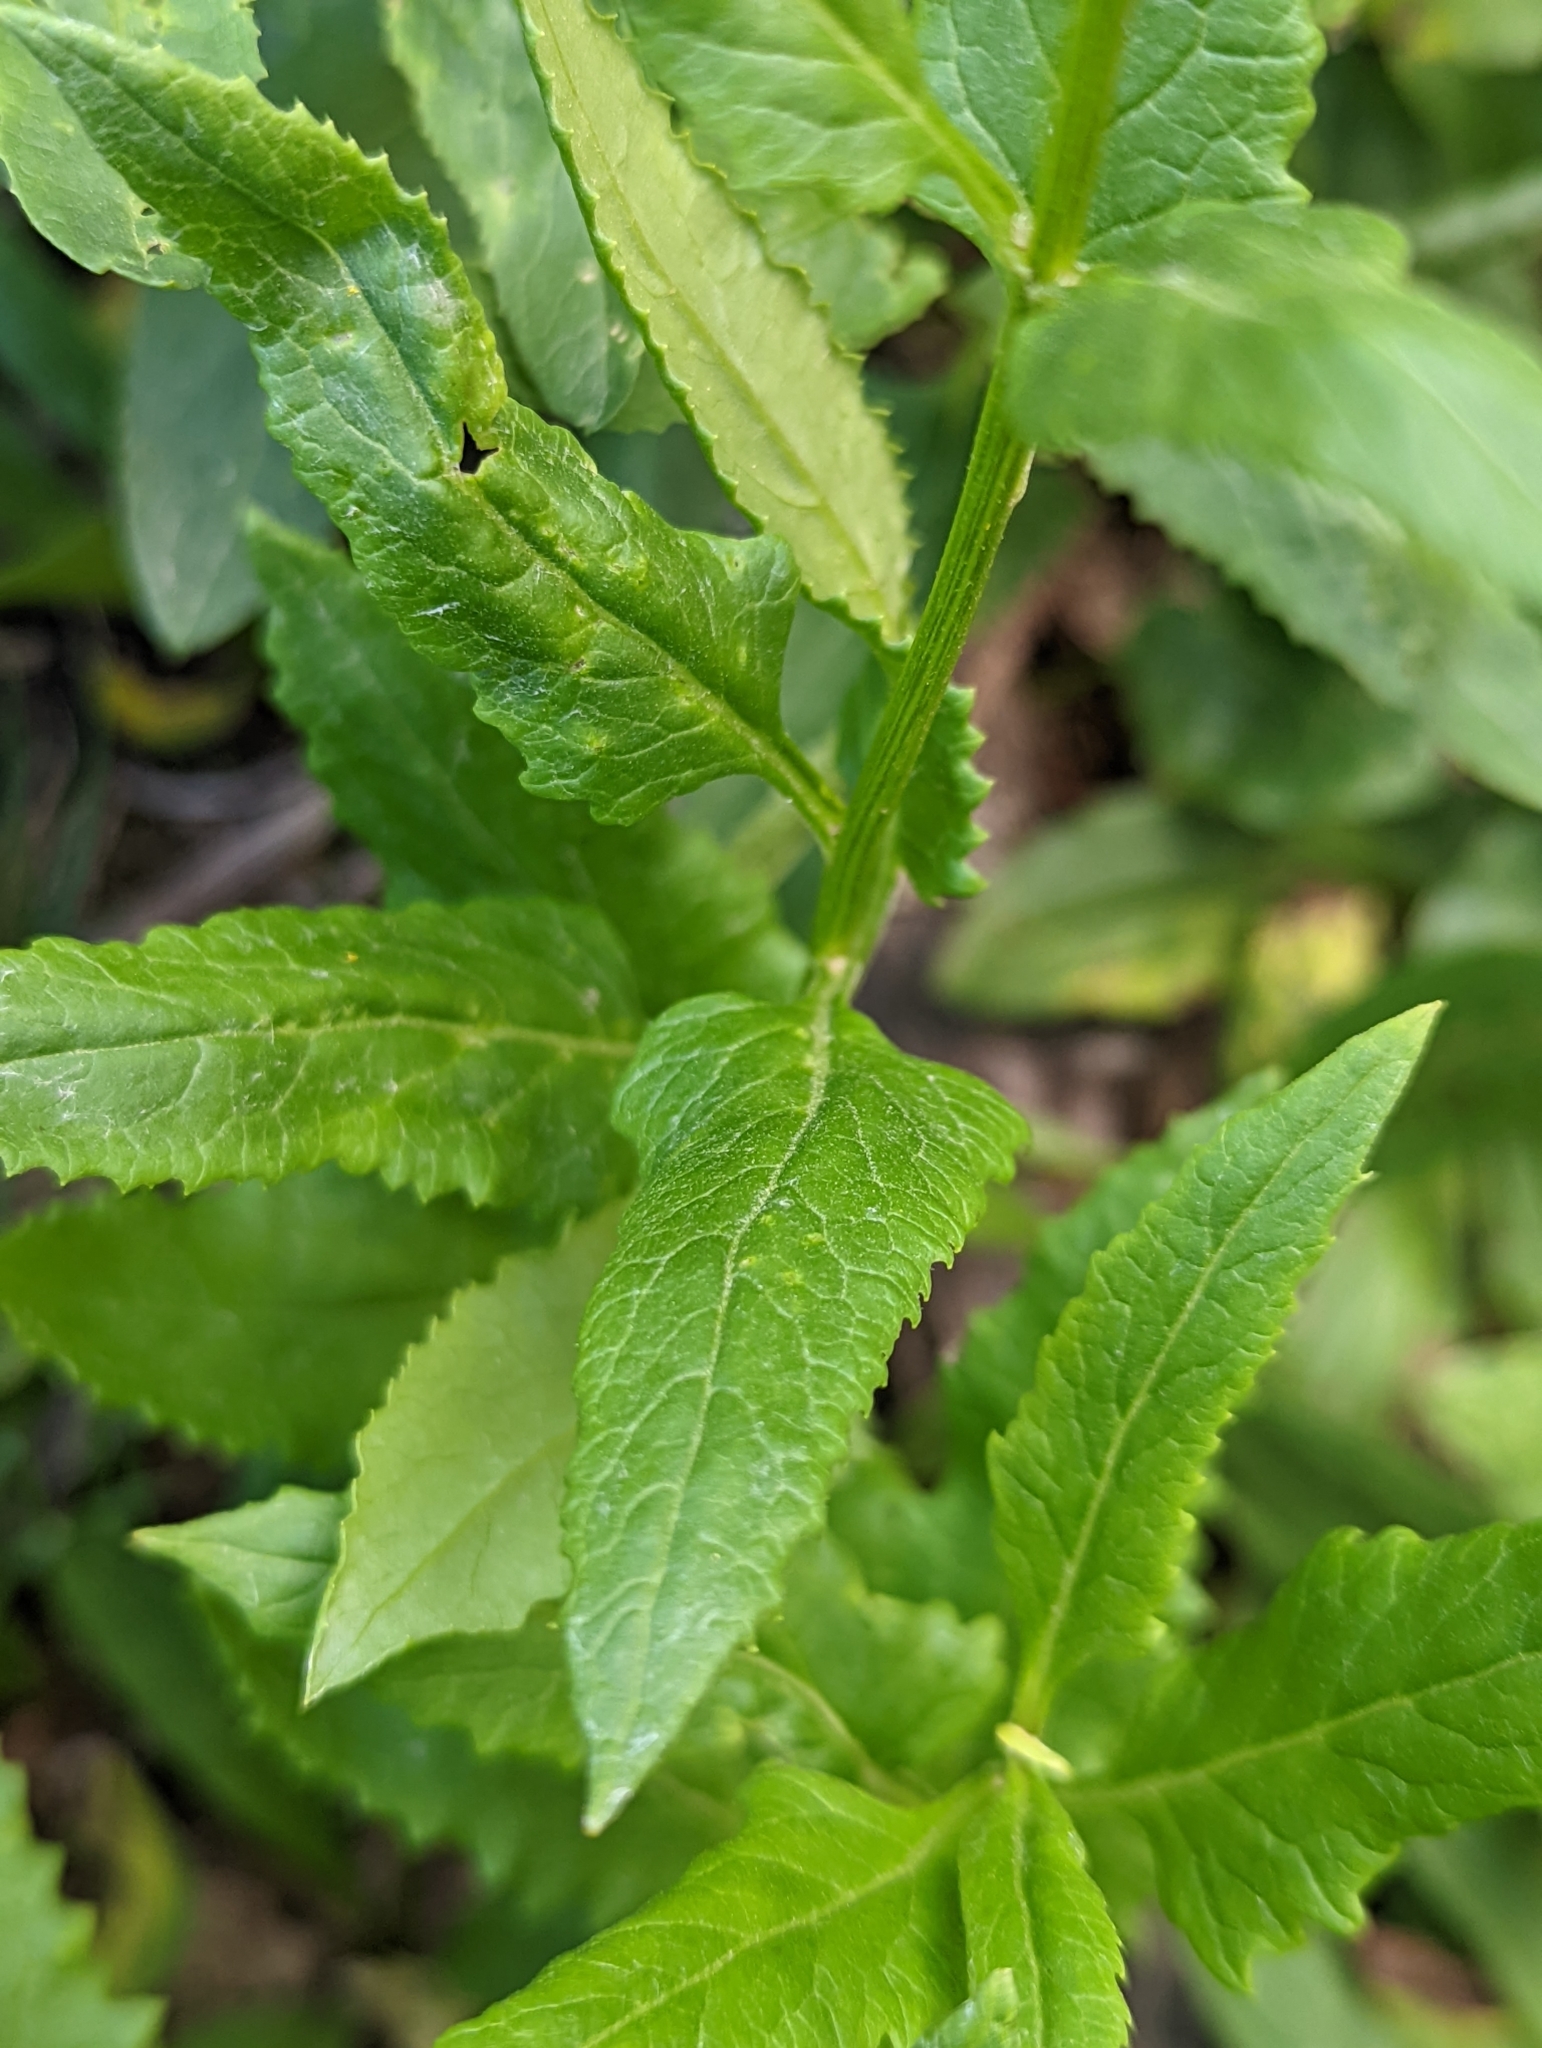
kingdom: Plantae
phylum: Tracheophyta
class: Magnoliopsida
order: Asterales
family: Asteraceae
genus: Senecio
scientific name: Senecio triangularis
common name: Arrowleaf butterweed
